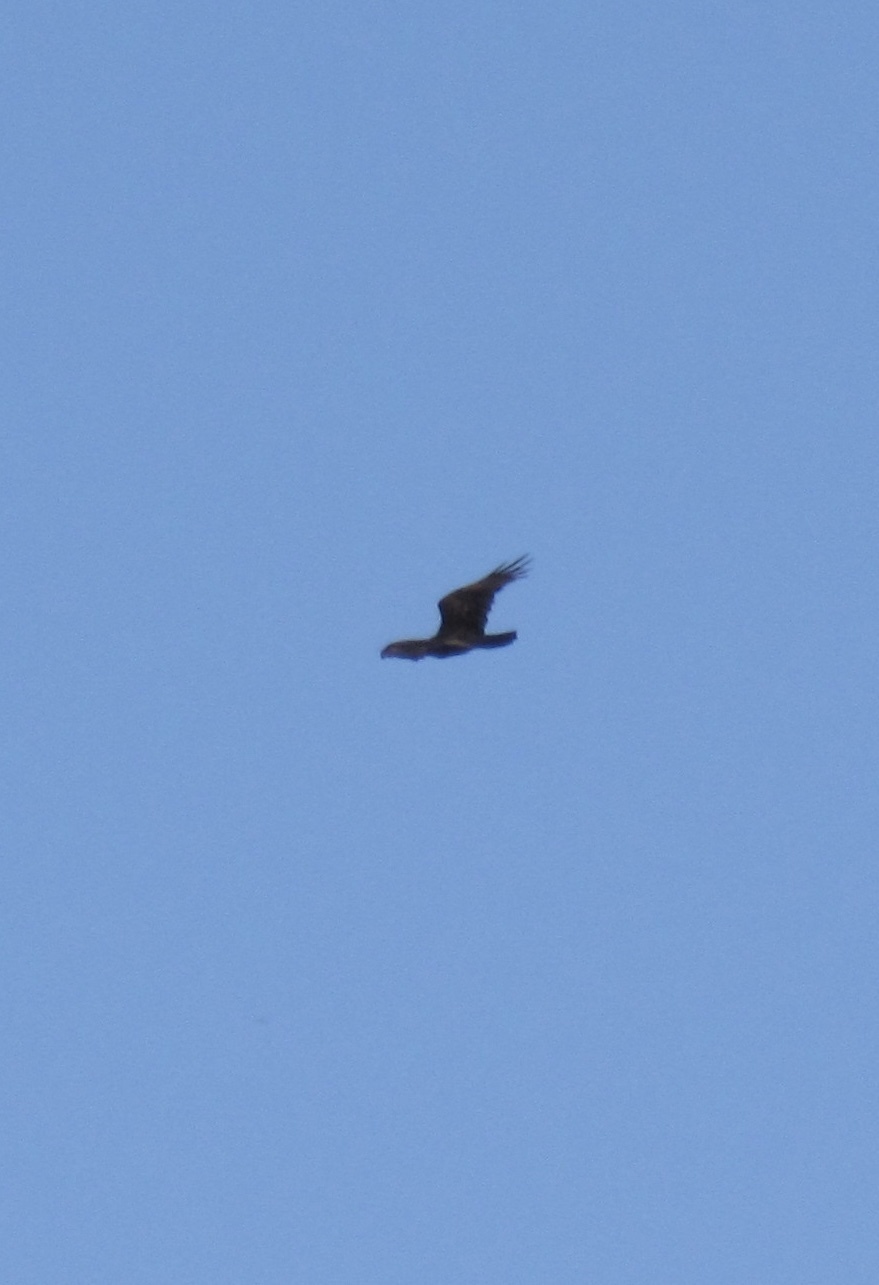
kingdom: Animalia
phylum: Chordata
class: Aves
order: Accipitriformes
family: Cathartidae
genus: Cathartes
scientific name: Cathartes aura
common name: Turkey vulture
